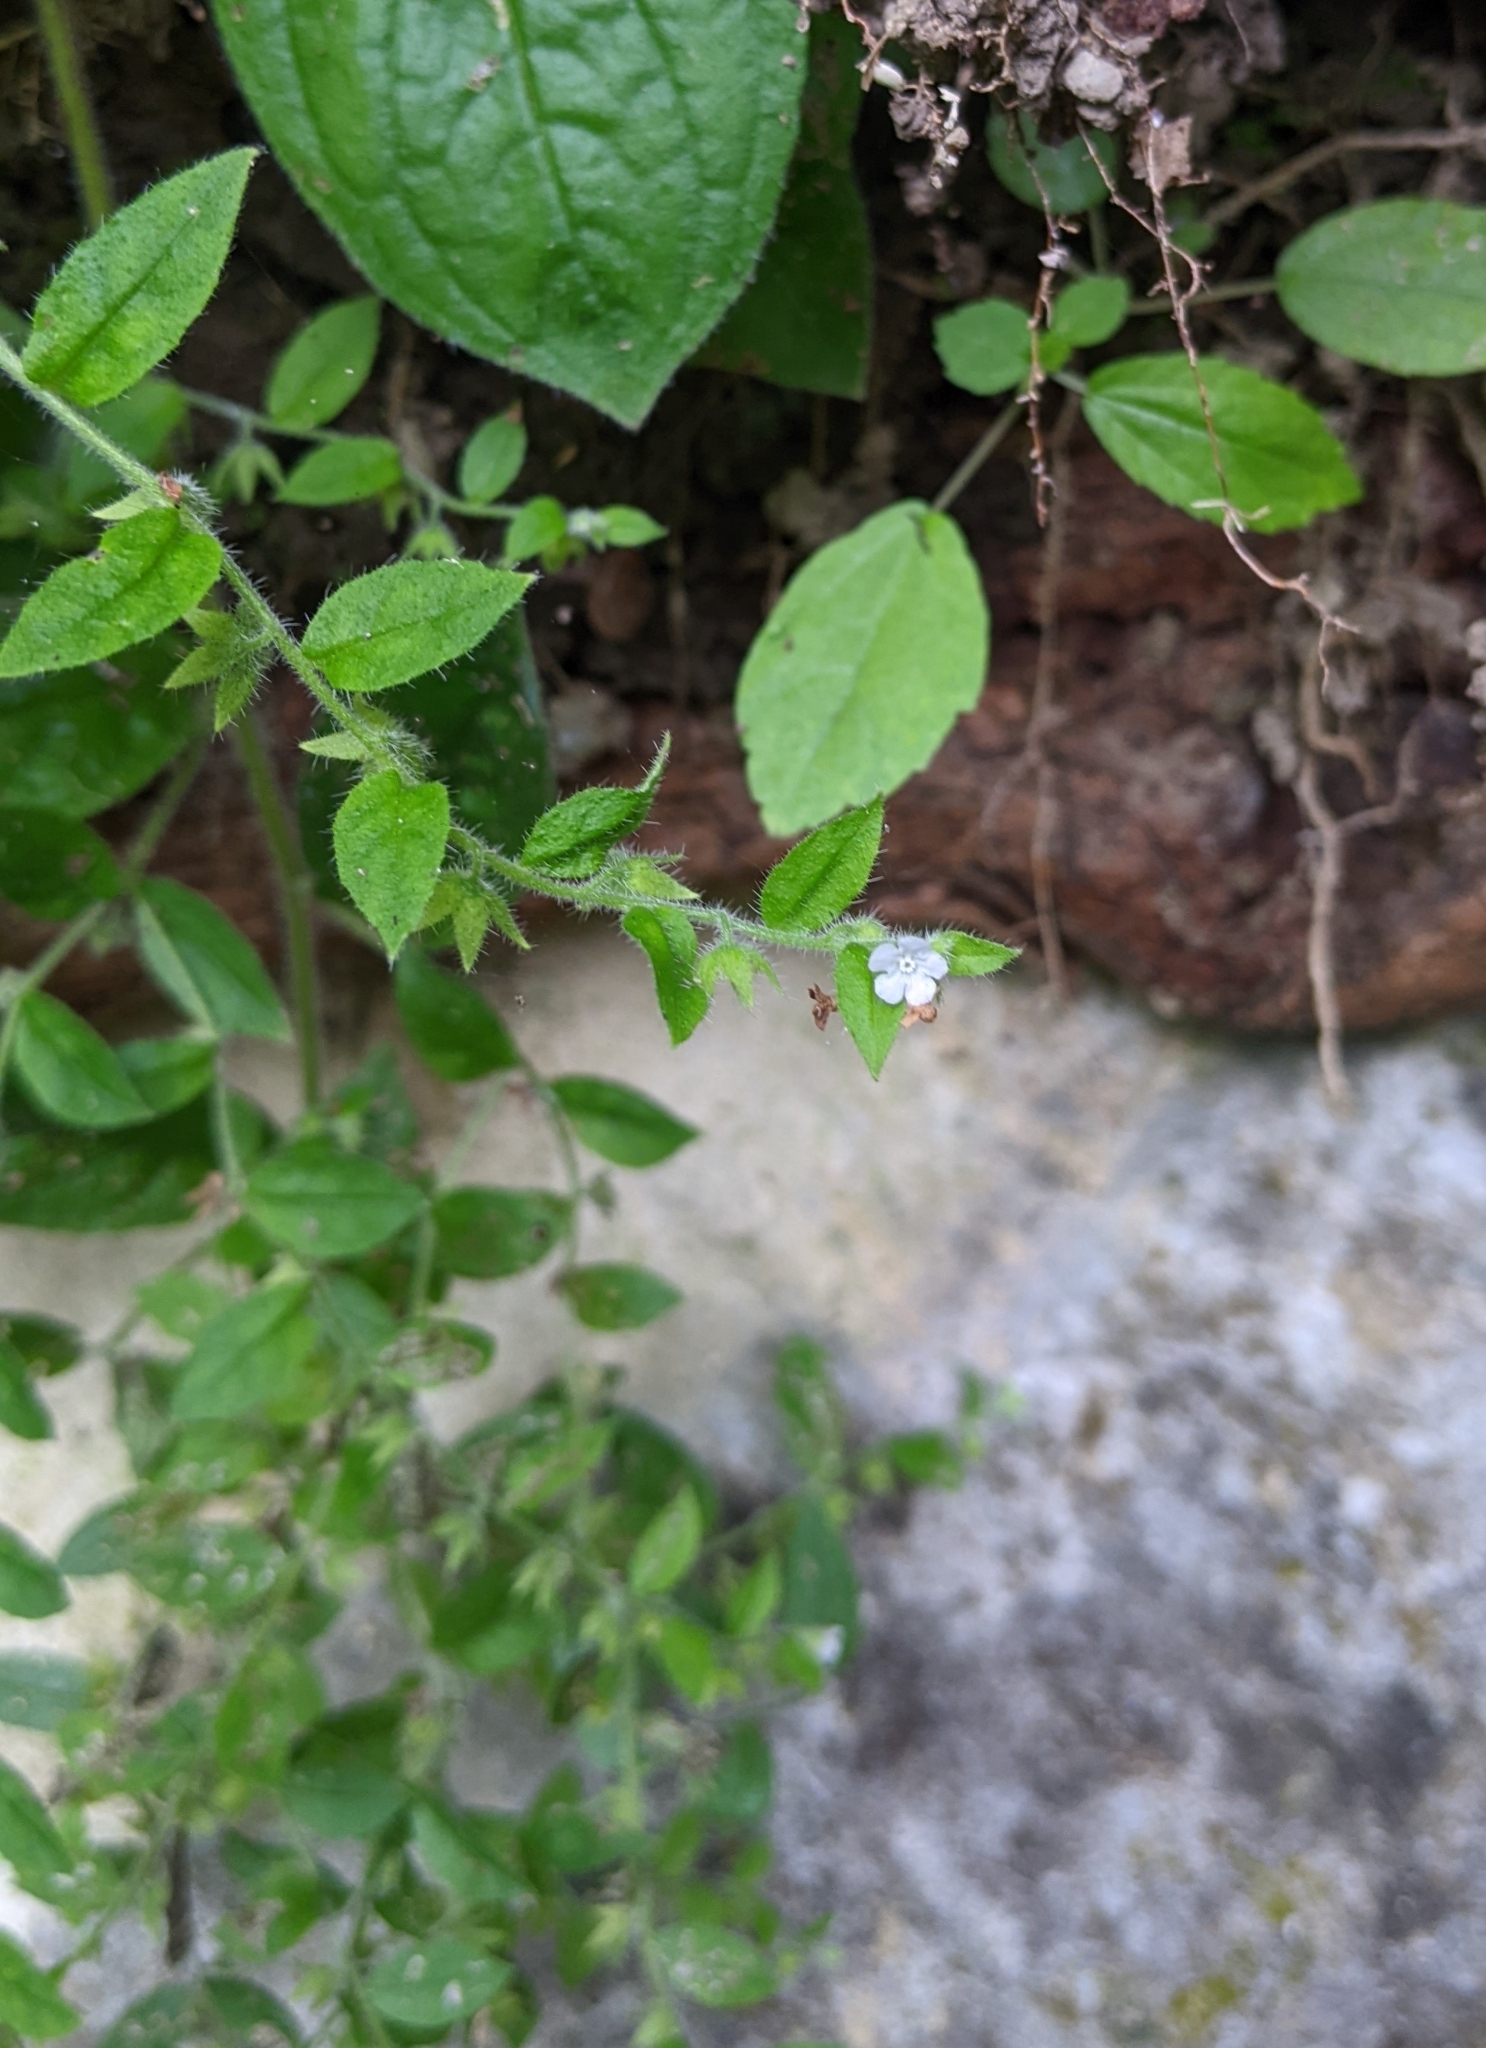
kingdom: Plantae
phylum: Tracheophyta
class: Magnoliopsida
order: Boraginales
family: Boraginaceae
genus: Thyrocarpus
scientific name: Thyrocarpus sampsonii
